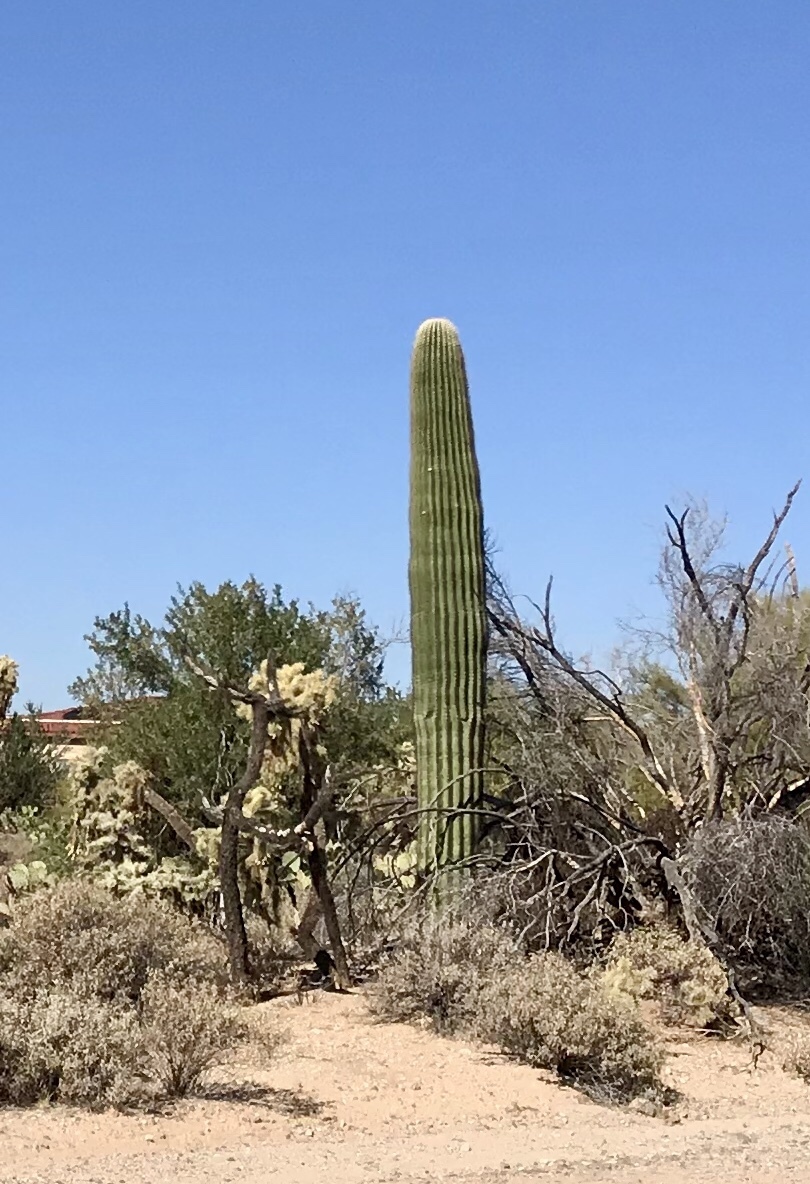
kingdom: Plantae
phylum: Tracheophyta
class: Magnoliopsida
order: Caryophyllales
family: Cactaceae
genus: Carnegiea
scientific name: Carnegiea gigantea
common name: Saguaro
